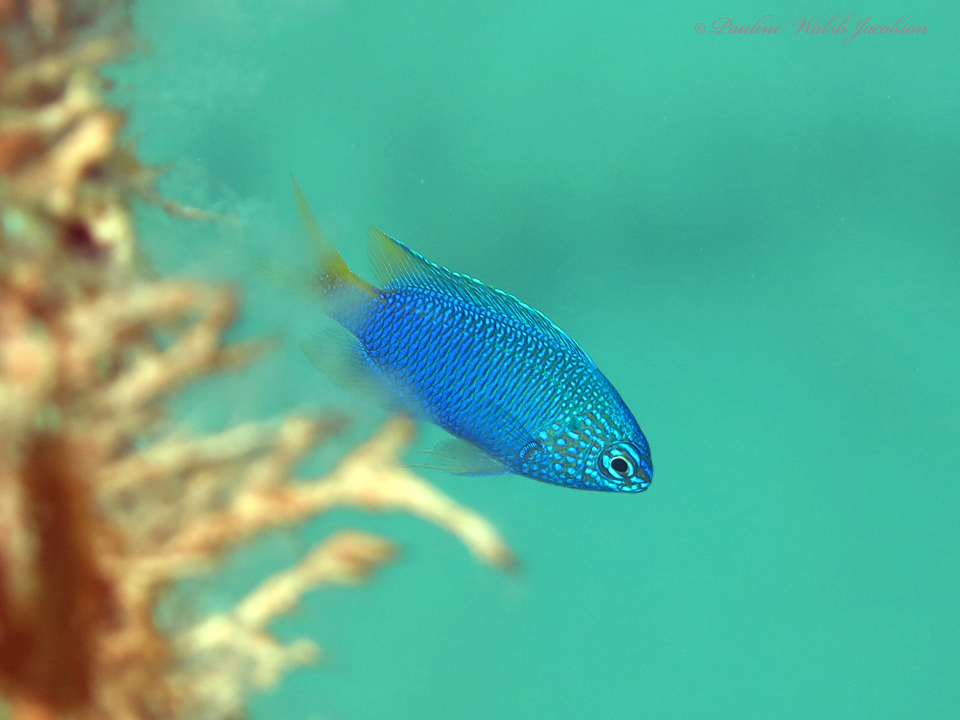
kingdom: Animalia
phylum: Chordata
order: Perciformes
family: Pomacentridae
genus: Pomacentrus
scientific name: Pomacentrus pavo
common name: Sapphire damsel
